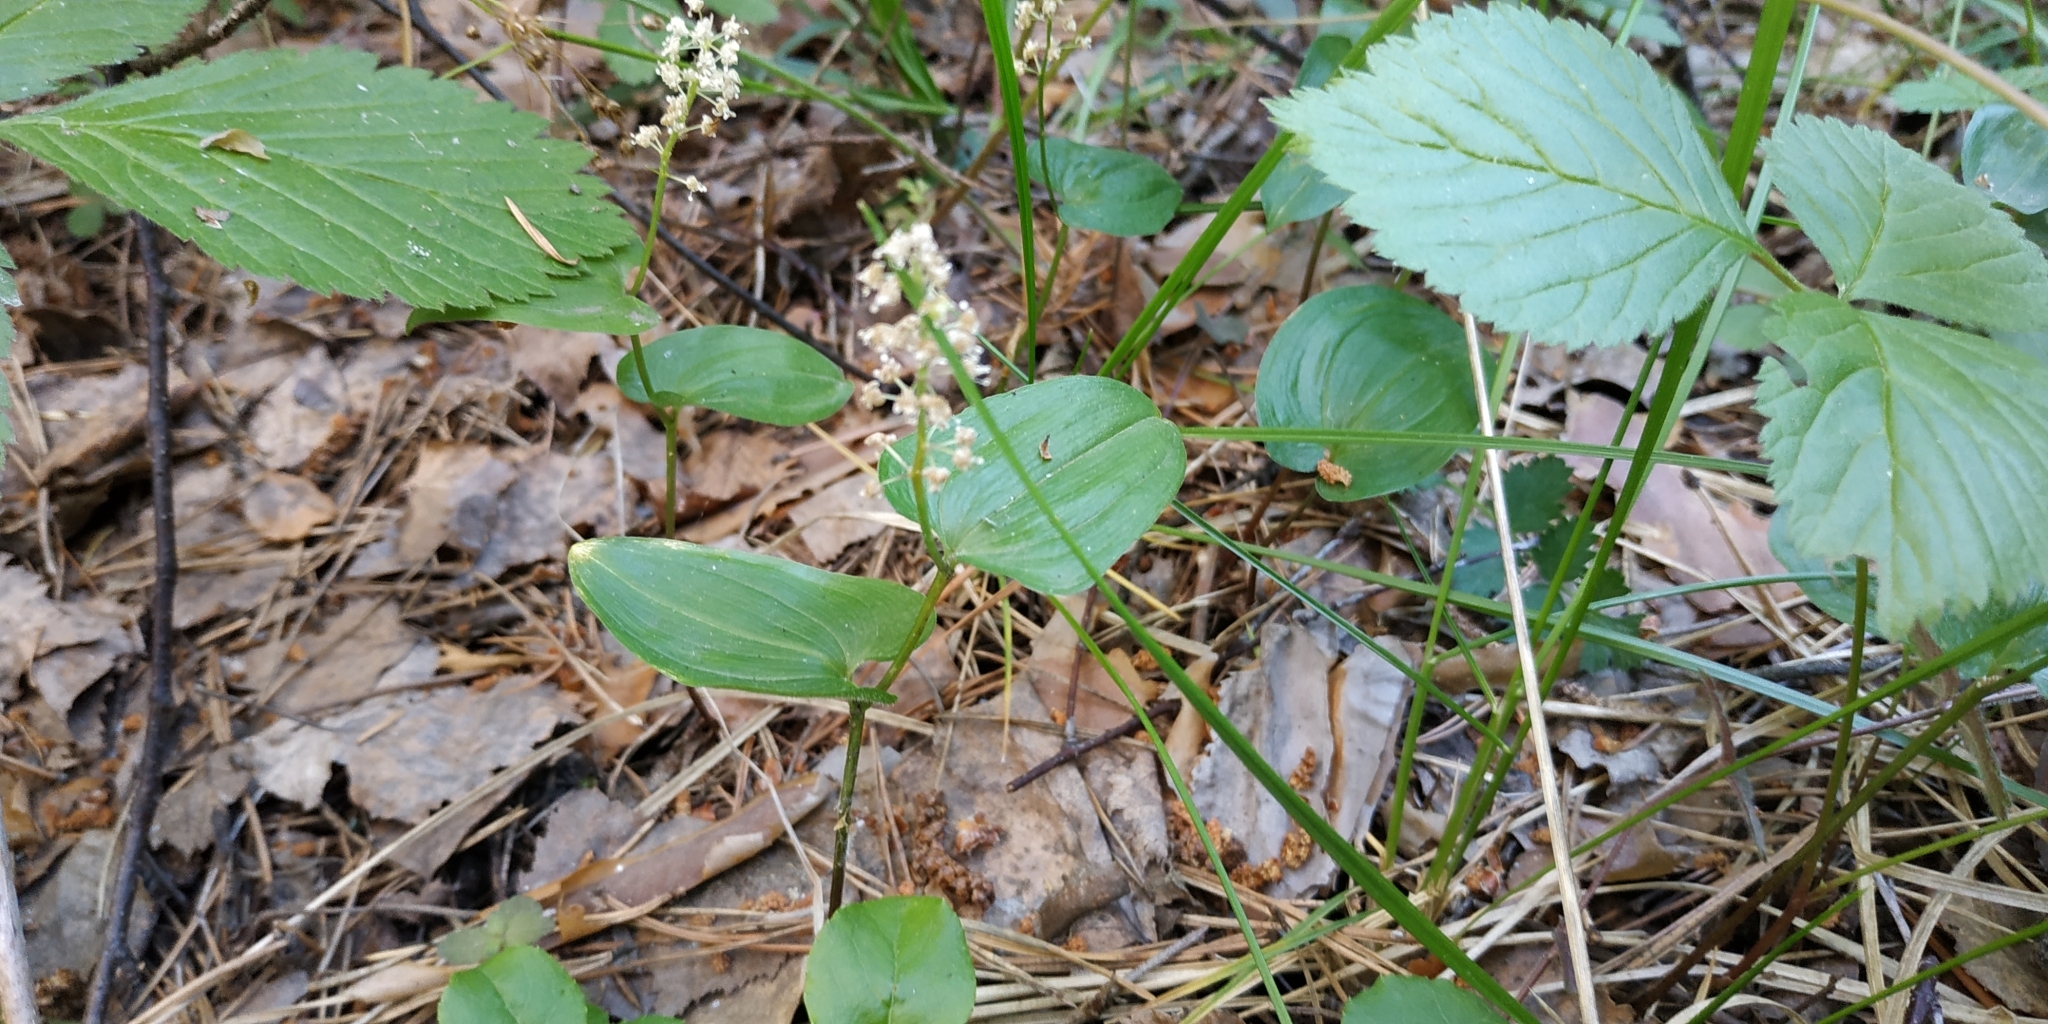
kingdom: Plantae
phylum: Tracheophyta
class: Liliopsida
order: Asparagales
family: Asparagaceae
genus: Maianthemum
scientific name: Maianthemum bifolium
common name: May lily
